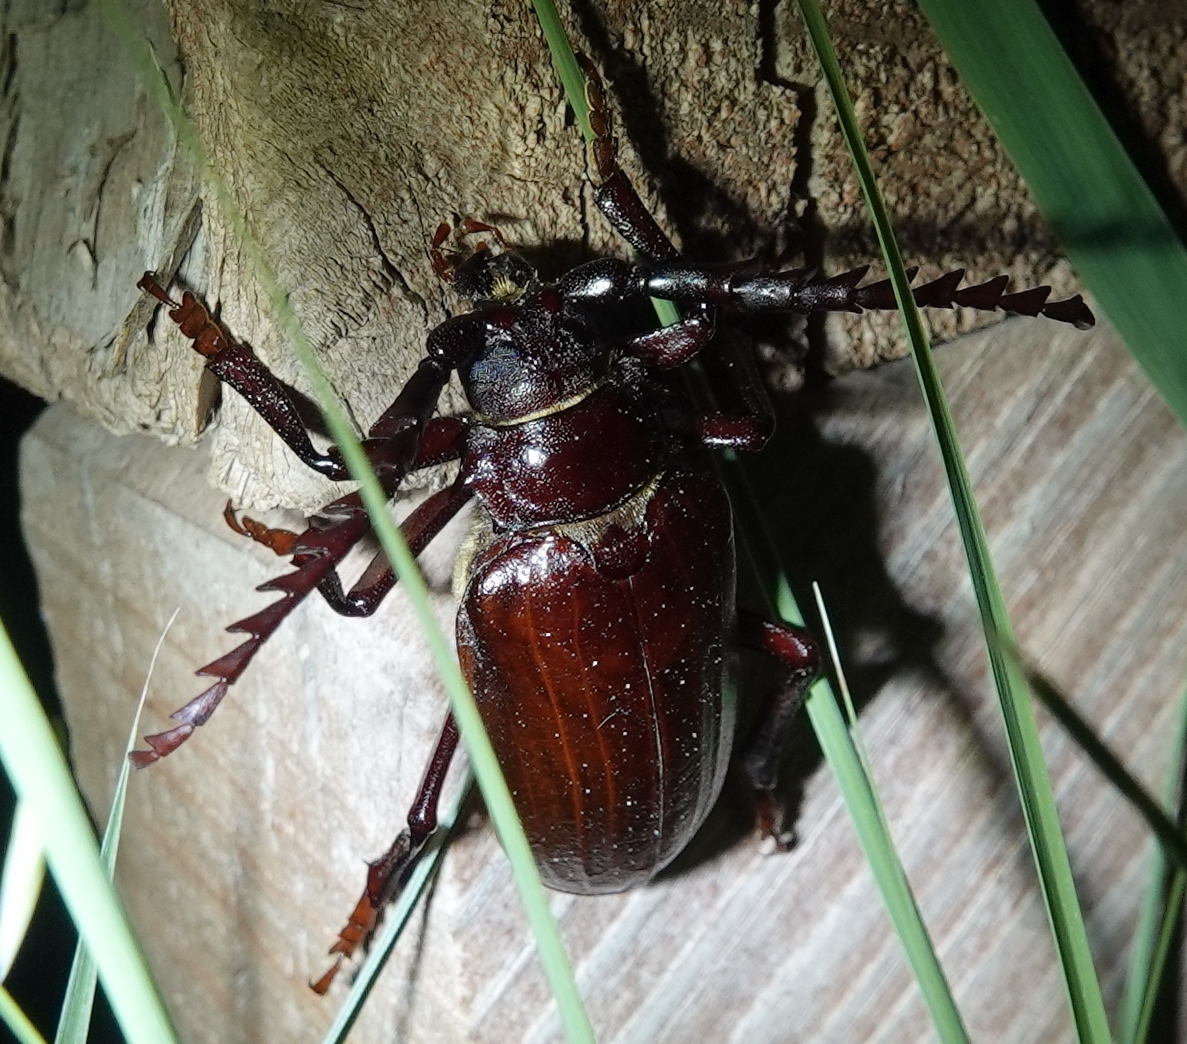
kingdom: Animalia
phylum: Arthropoda
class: Insecta
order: Coleoptera
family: Cerambycidae
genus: Prionus
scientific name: Prionus californicus
